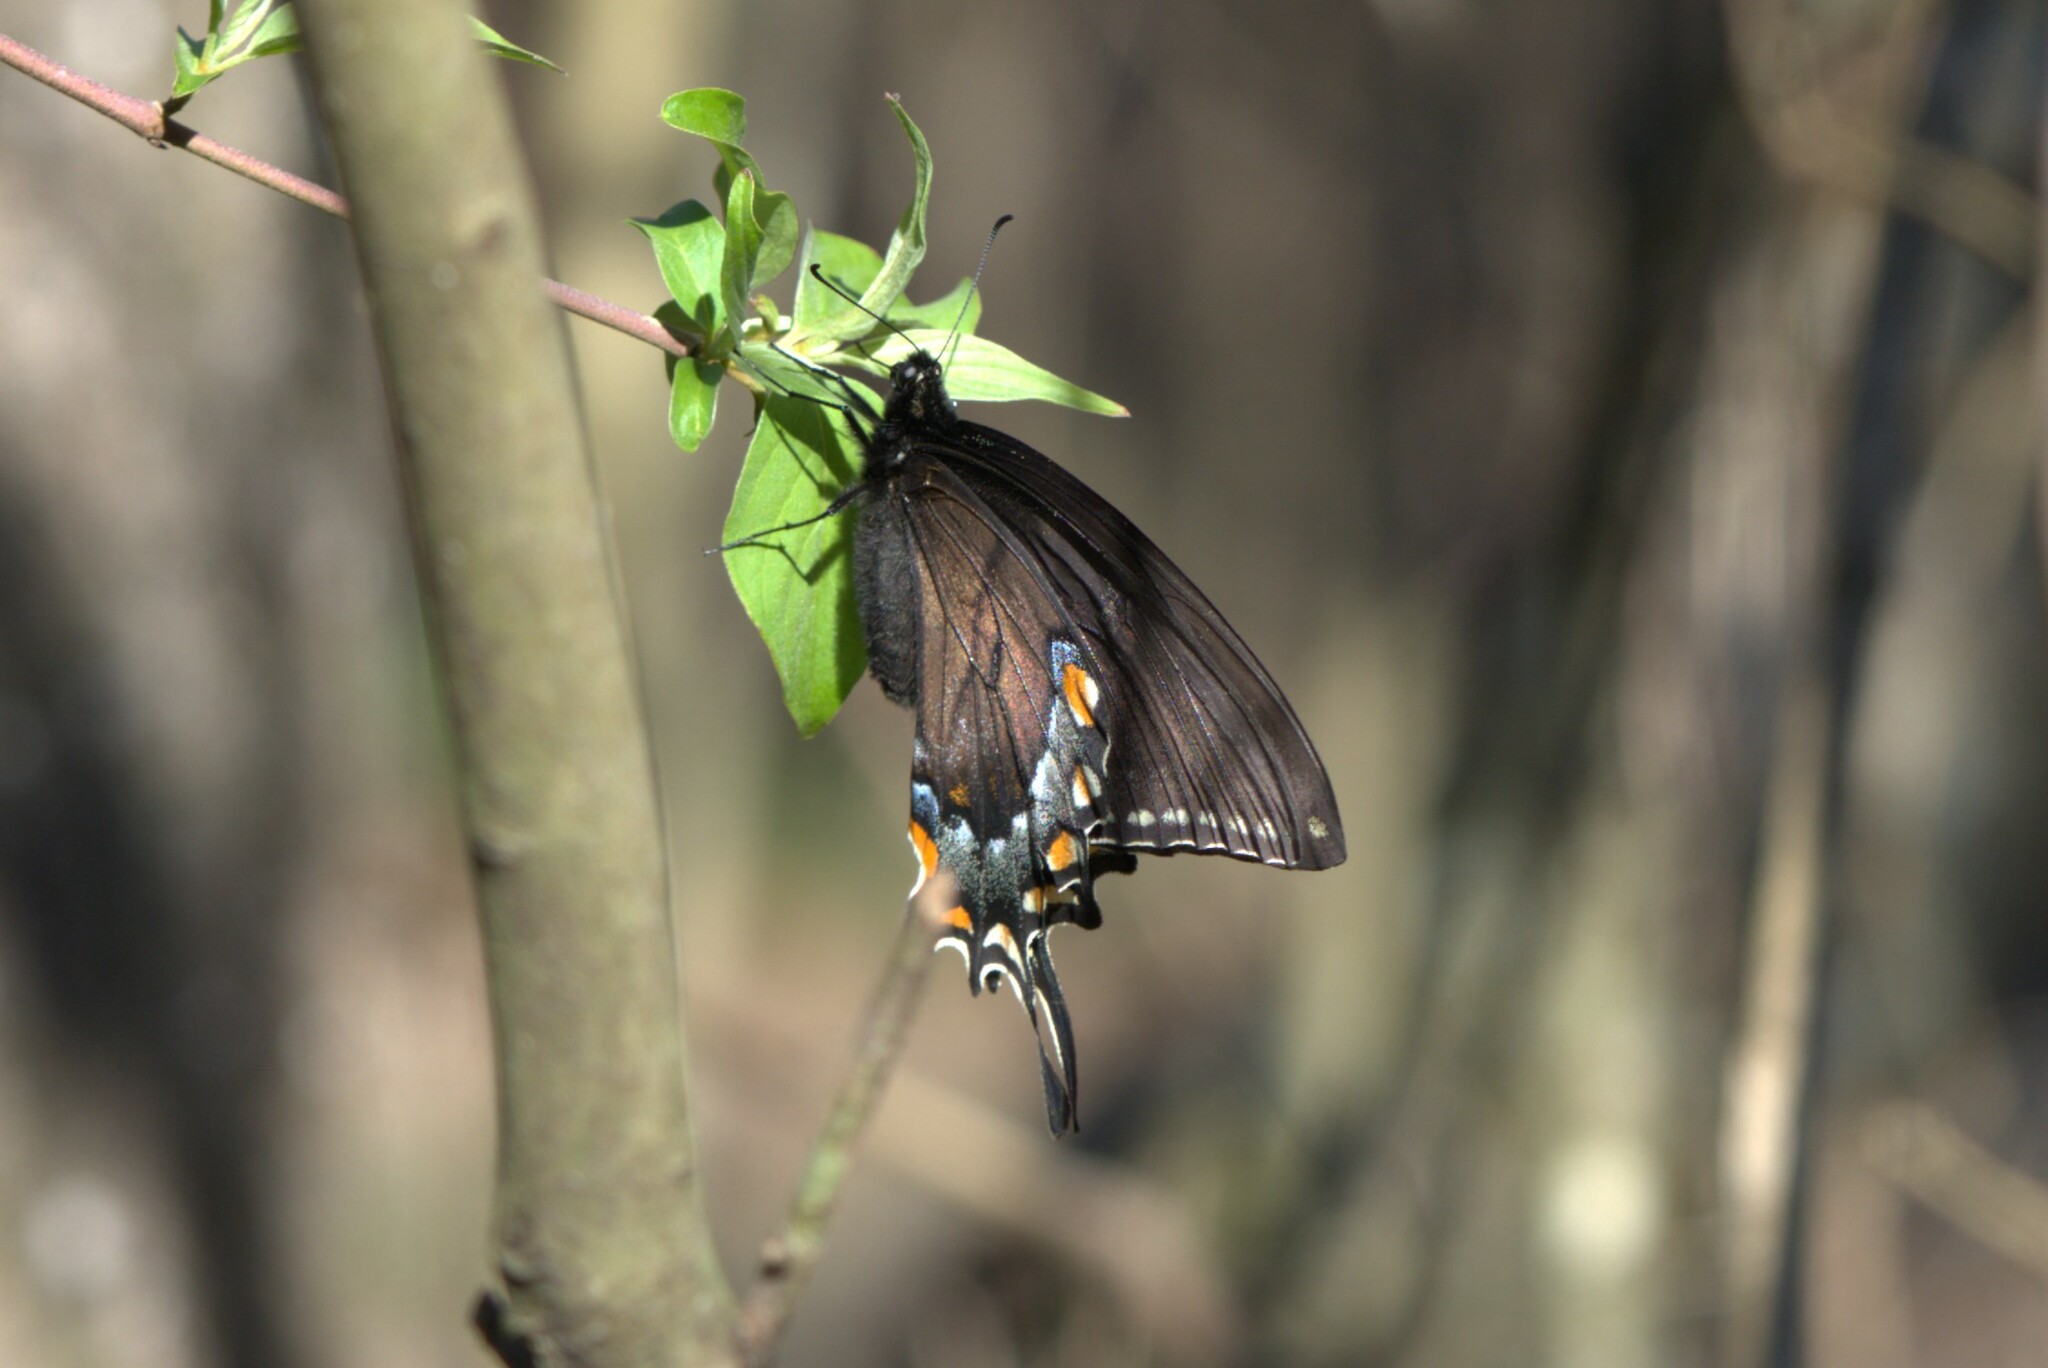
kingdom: Animalia
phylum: Arthropoda
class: Insecta
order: Lepidoptera
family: Papilionidae
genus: Papilio
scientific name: Papilio glaucus
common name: Tiger swallowtail
